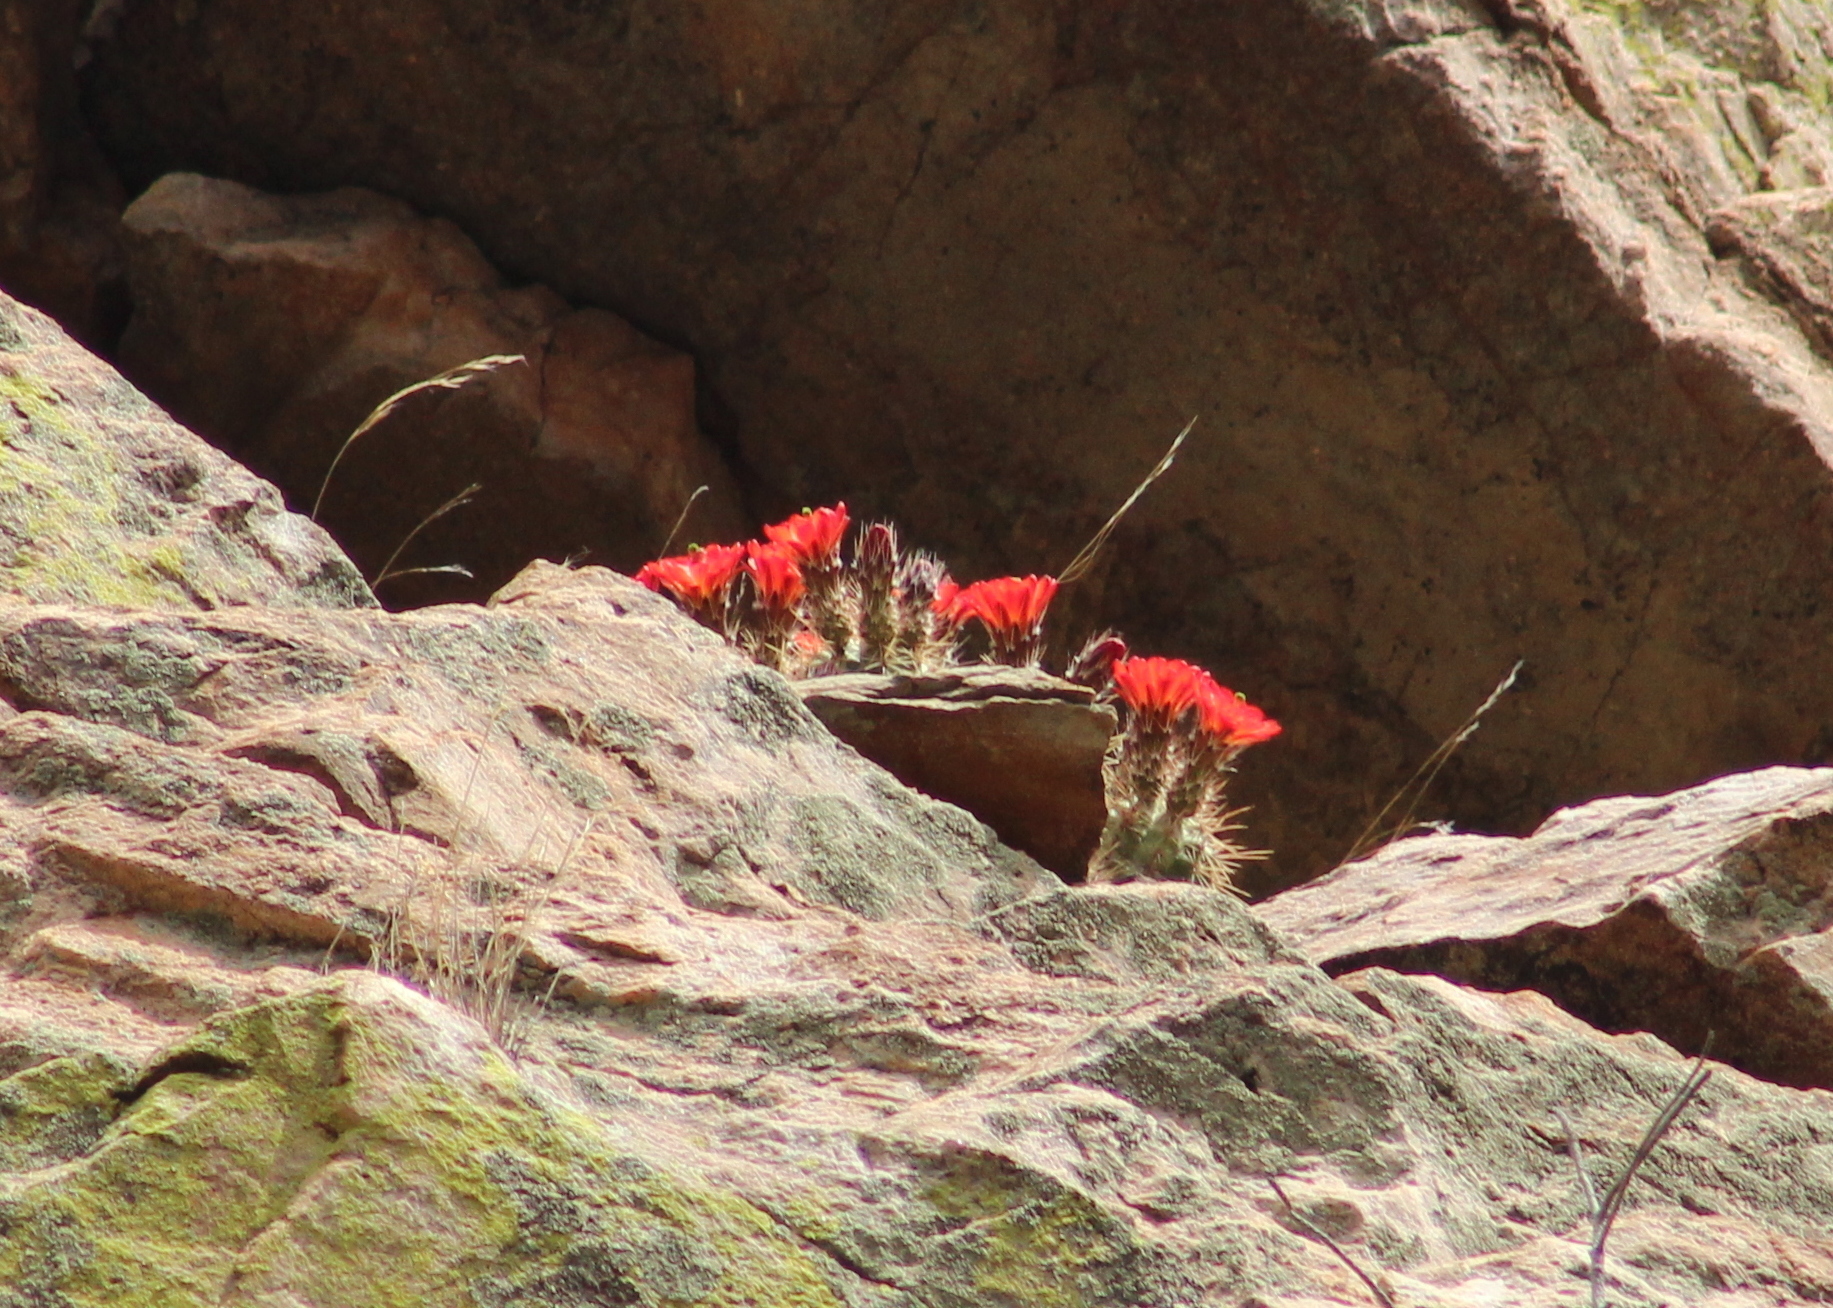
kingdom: Plantae
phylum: Tracheophyta
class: Magnoliopsida
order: Caryophyllales
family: Cactaceae
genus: Echinocereus
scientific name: Echinocereus coccineus
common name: Scarlet hedgehog cactus
